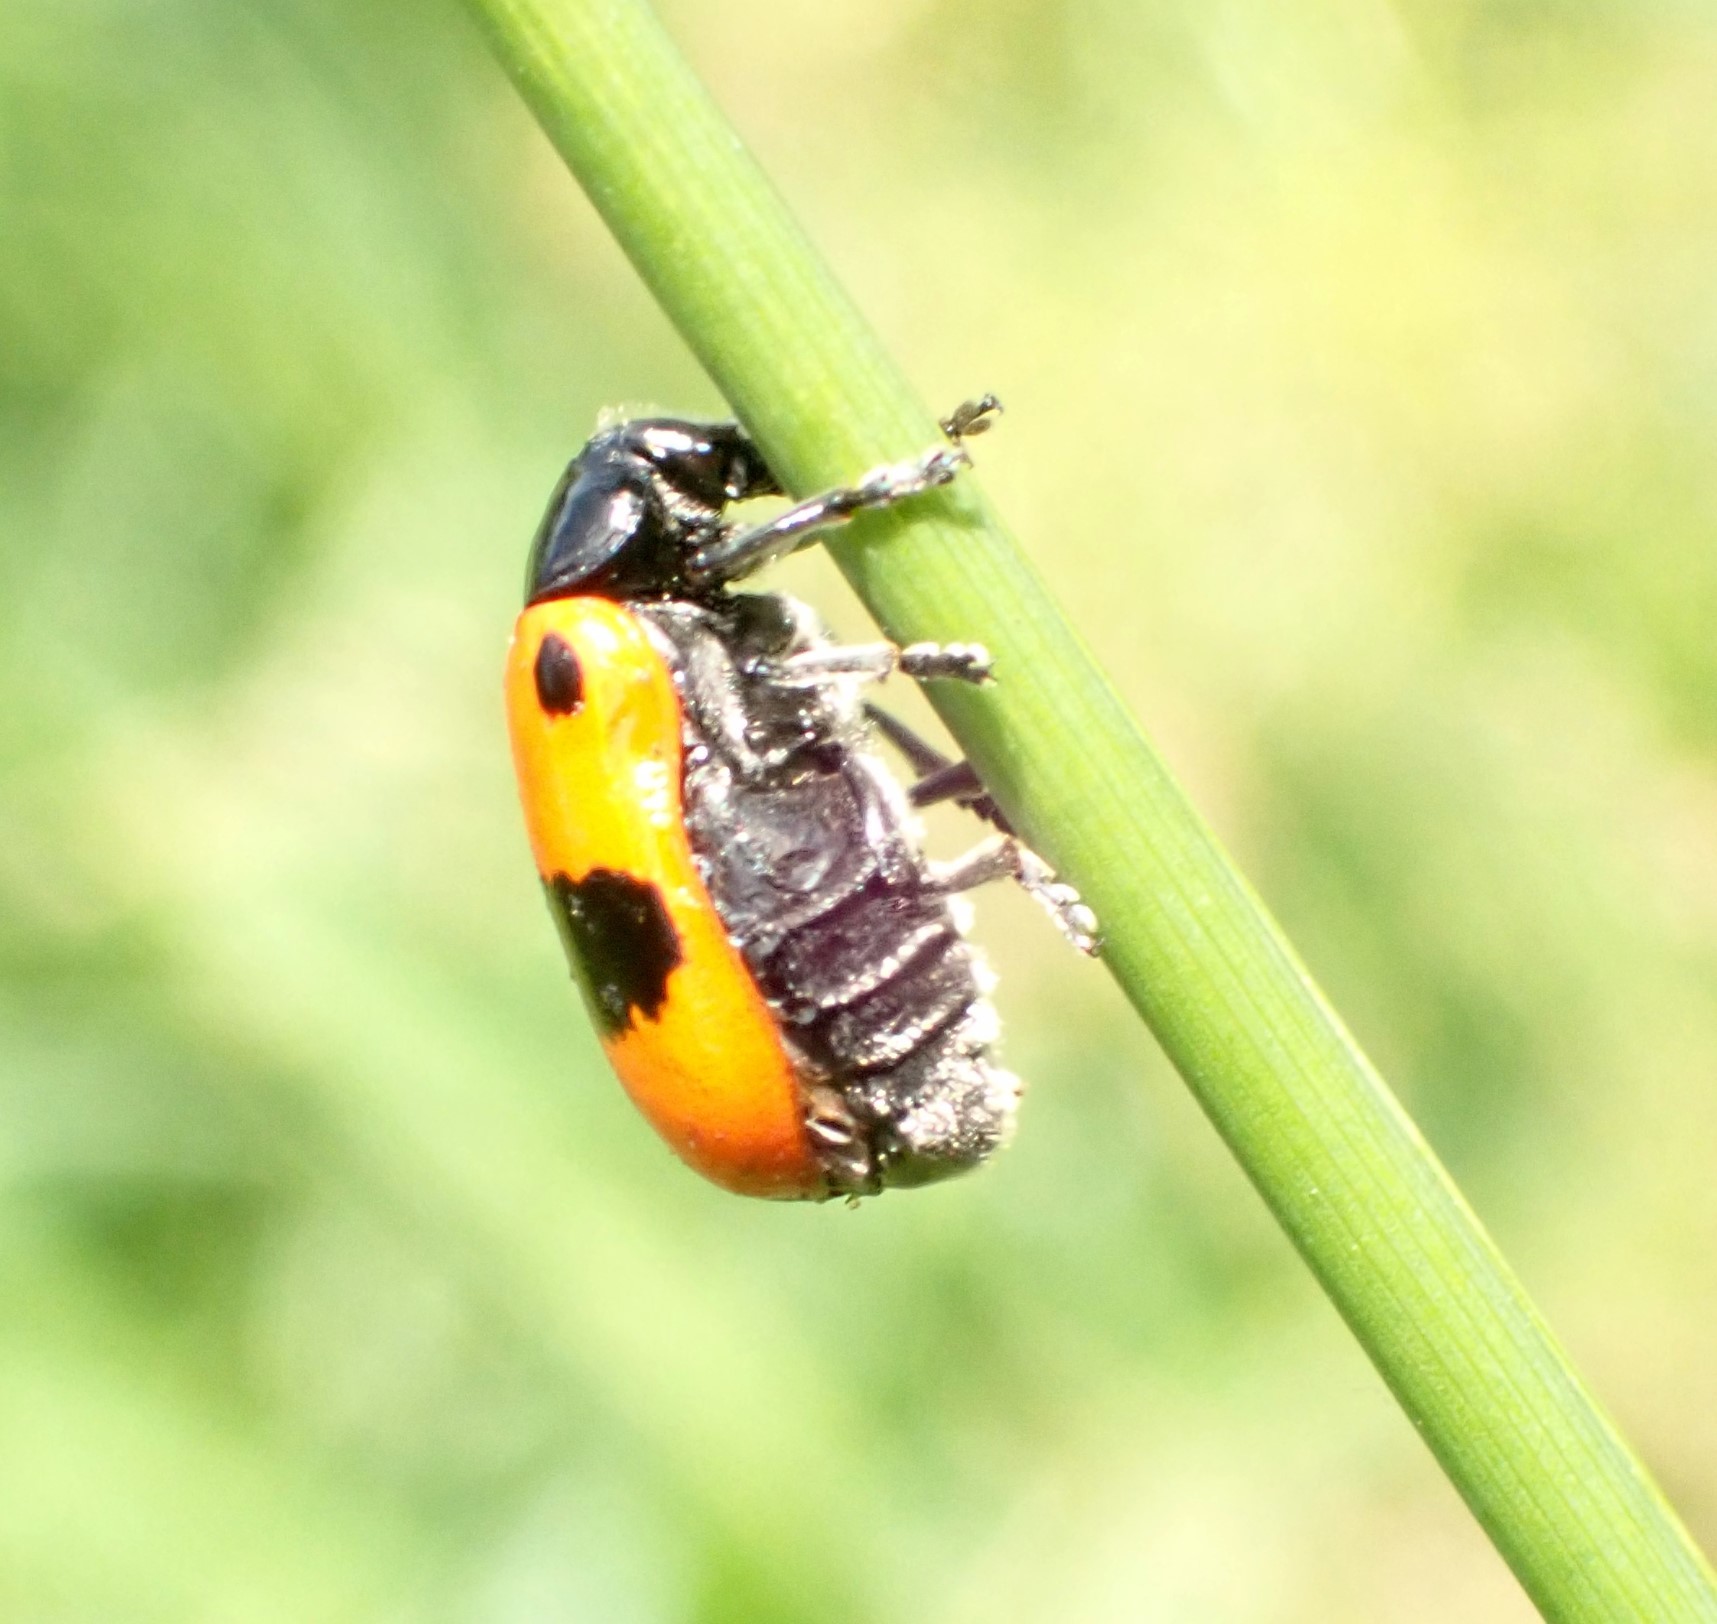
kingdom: Animalia
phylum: Arthropoda
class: Insecta
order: Coleoptera
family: Chrysomelidae
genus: Clytra
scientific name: Clytra laeviuscula
